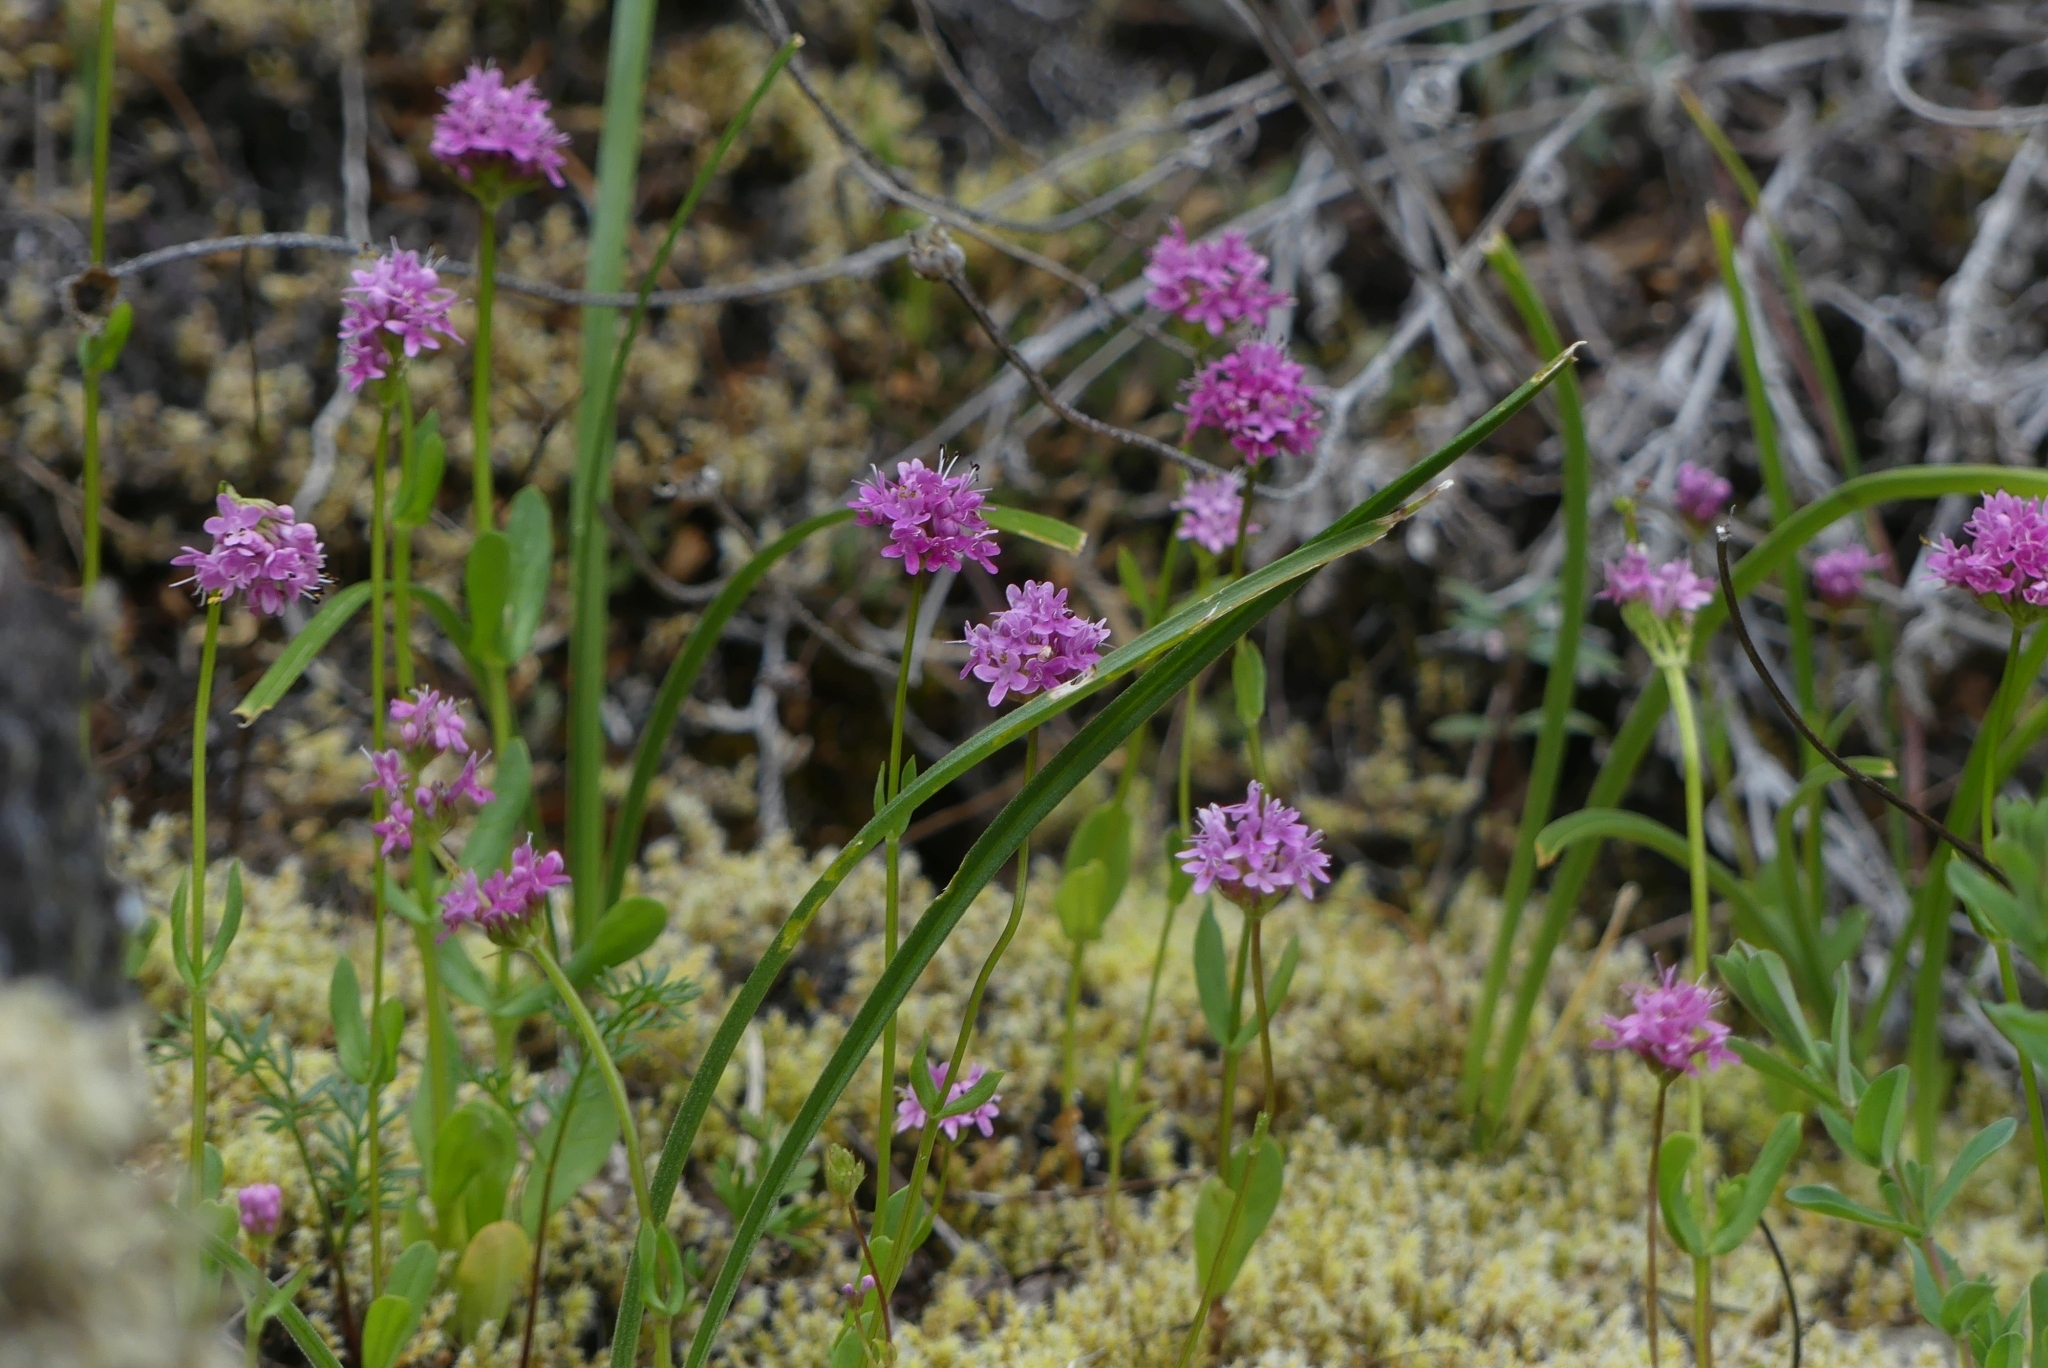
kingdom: Plantae
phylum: Tracheophyta
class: Magnoliopsida
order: Dipsacales
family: Caprifoliaceae
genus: Plectritis
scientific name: Plectritis congesta
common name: Pink plectritis
